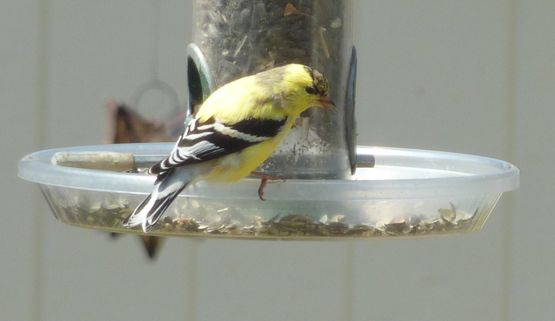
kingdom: Animalia
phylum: Chordata
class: Aves
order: Passeriformes
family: Fringillidae
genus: Spinus
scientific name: Spinus tristis
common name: American goldfinch
